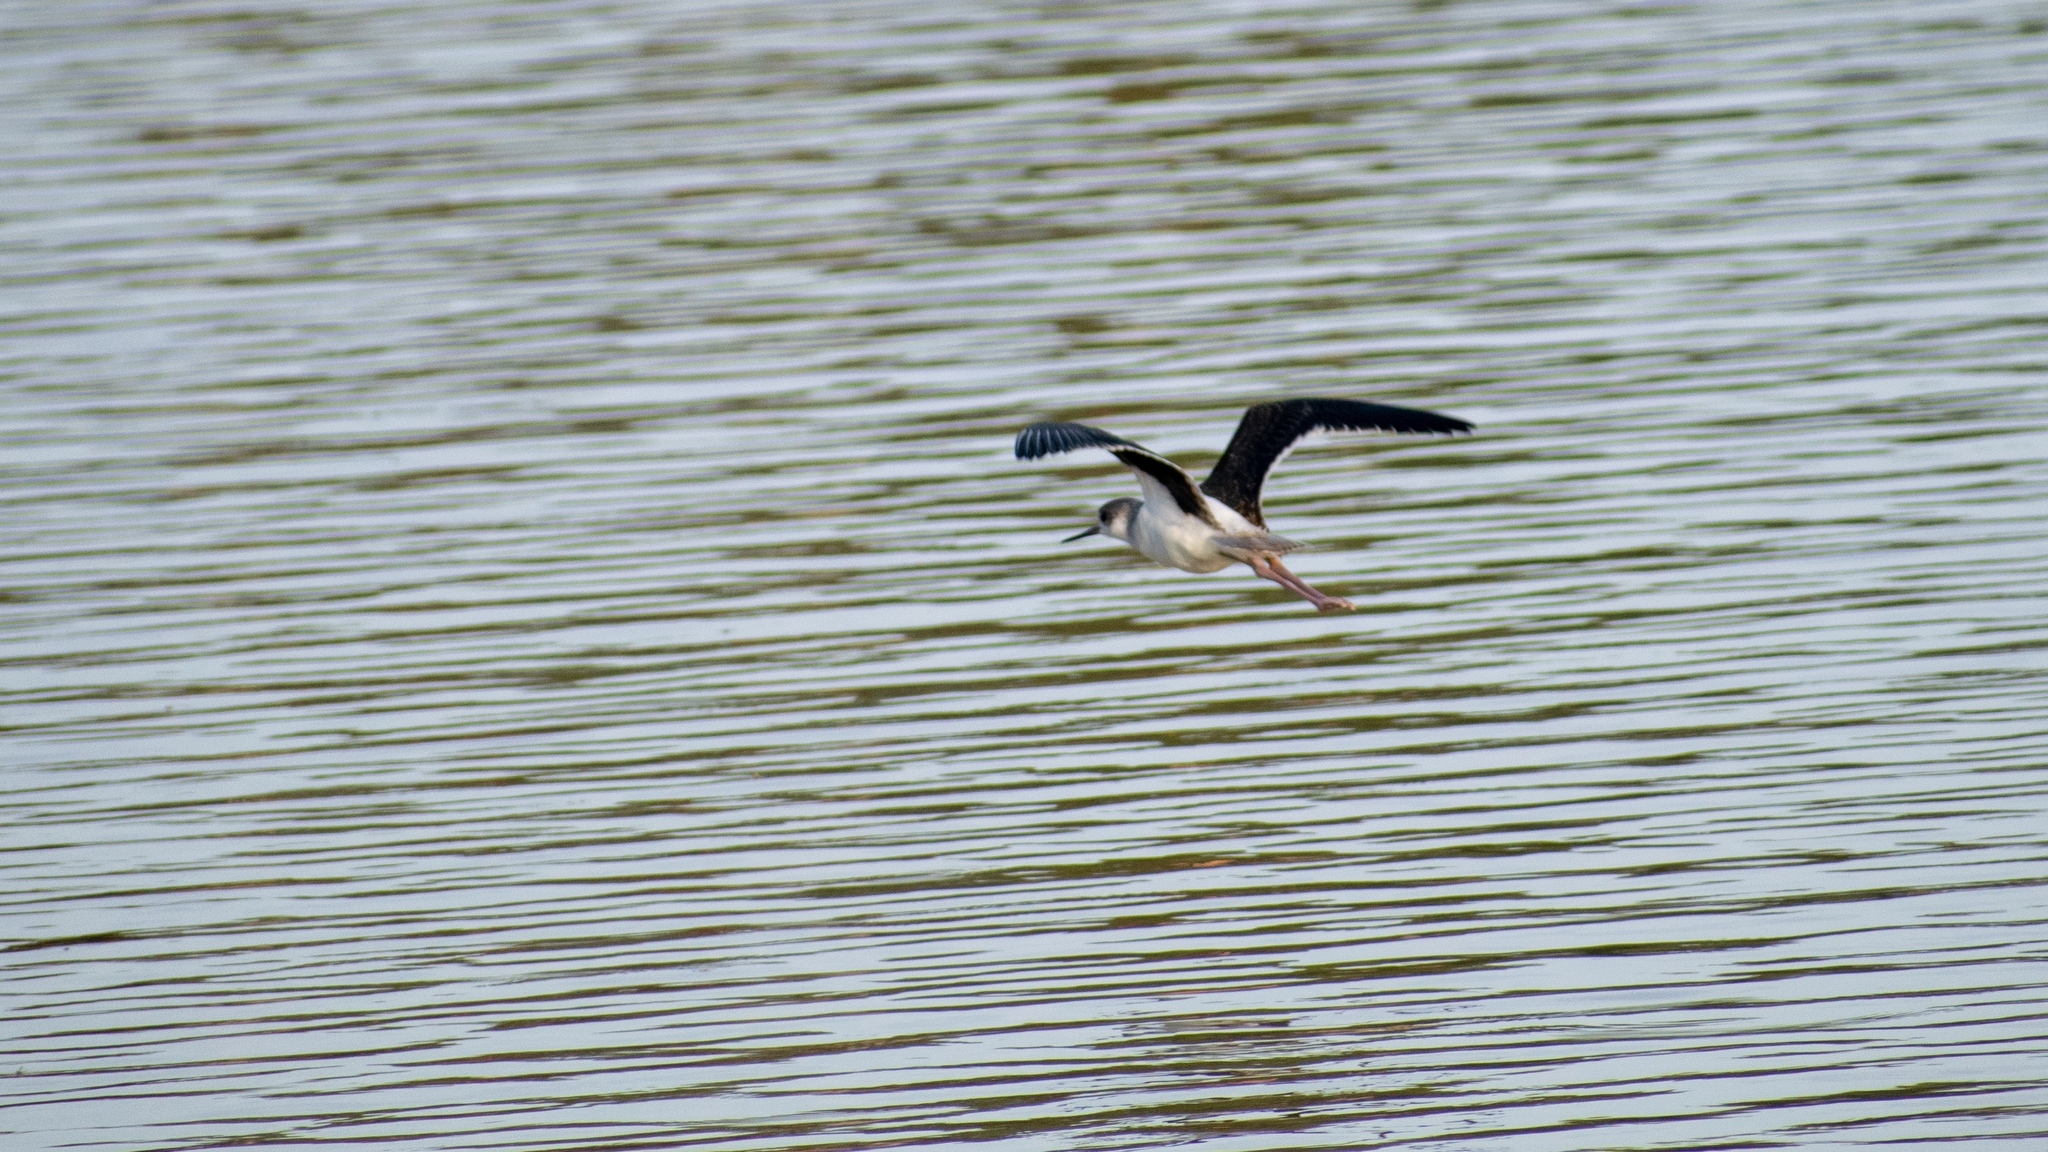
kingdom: Animalia
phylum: Chordata
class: Aves
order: Charadriiformes
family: Recurvirostridae
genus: Himantopus
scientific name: Himantopus himantopus
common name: Black-winged stilt
